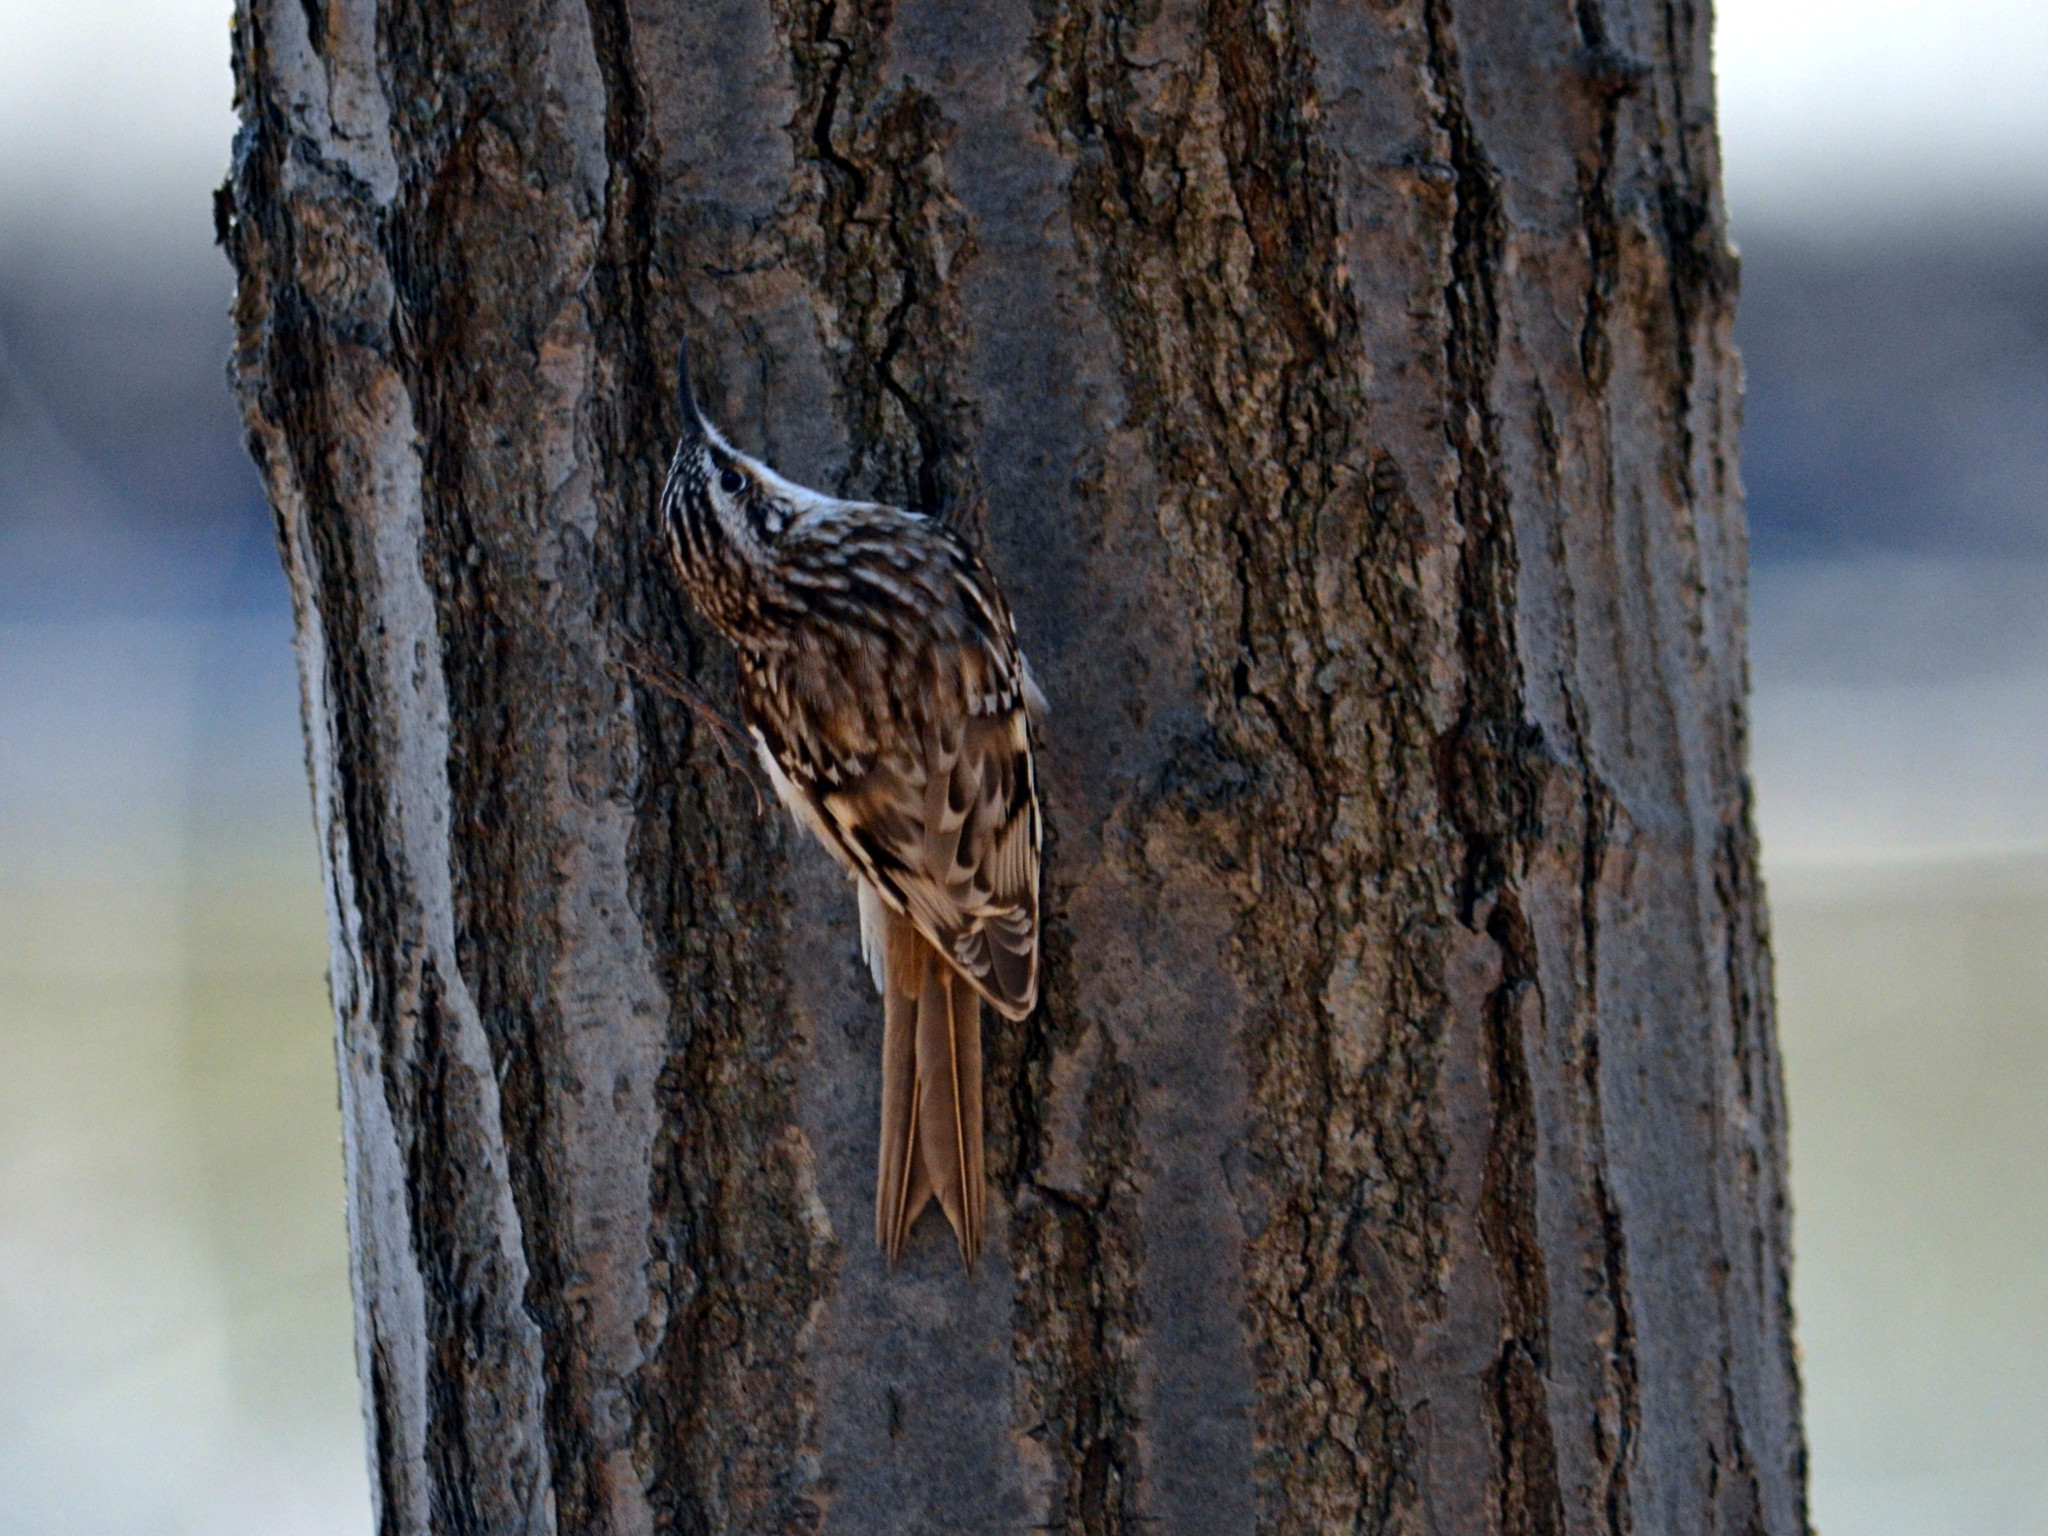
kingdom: Animalia
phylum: Chordata
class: Aves
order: Passeriformes
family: Certhiidae
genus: Certhia
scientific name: Certhia americana
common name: Brown creeper
